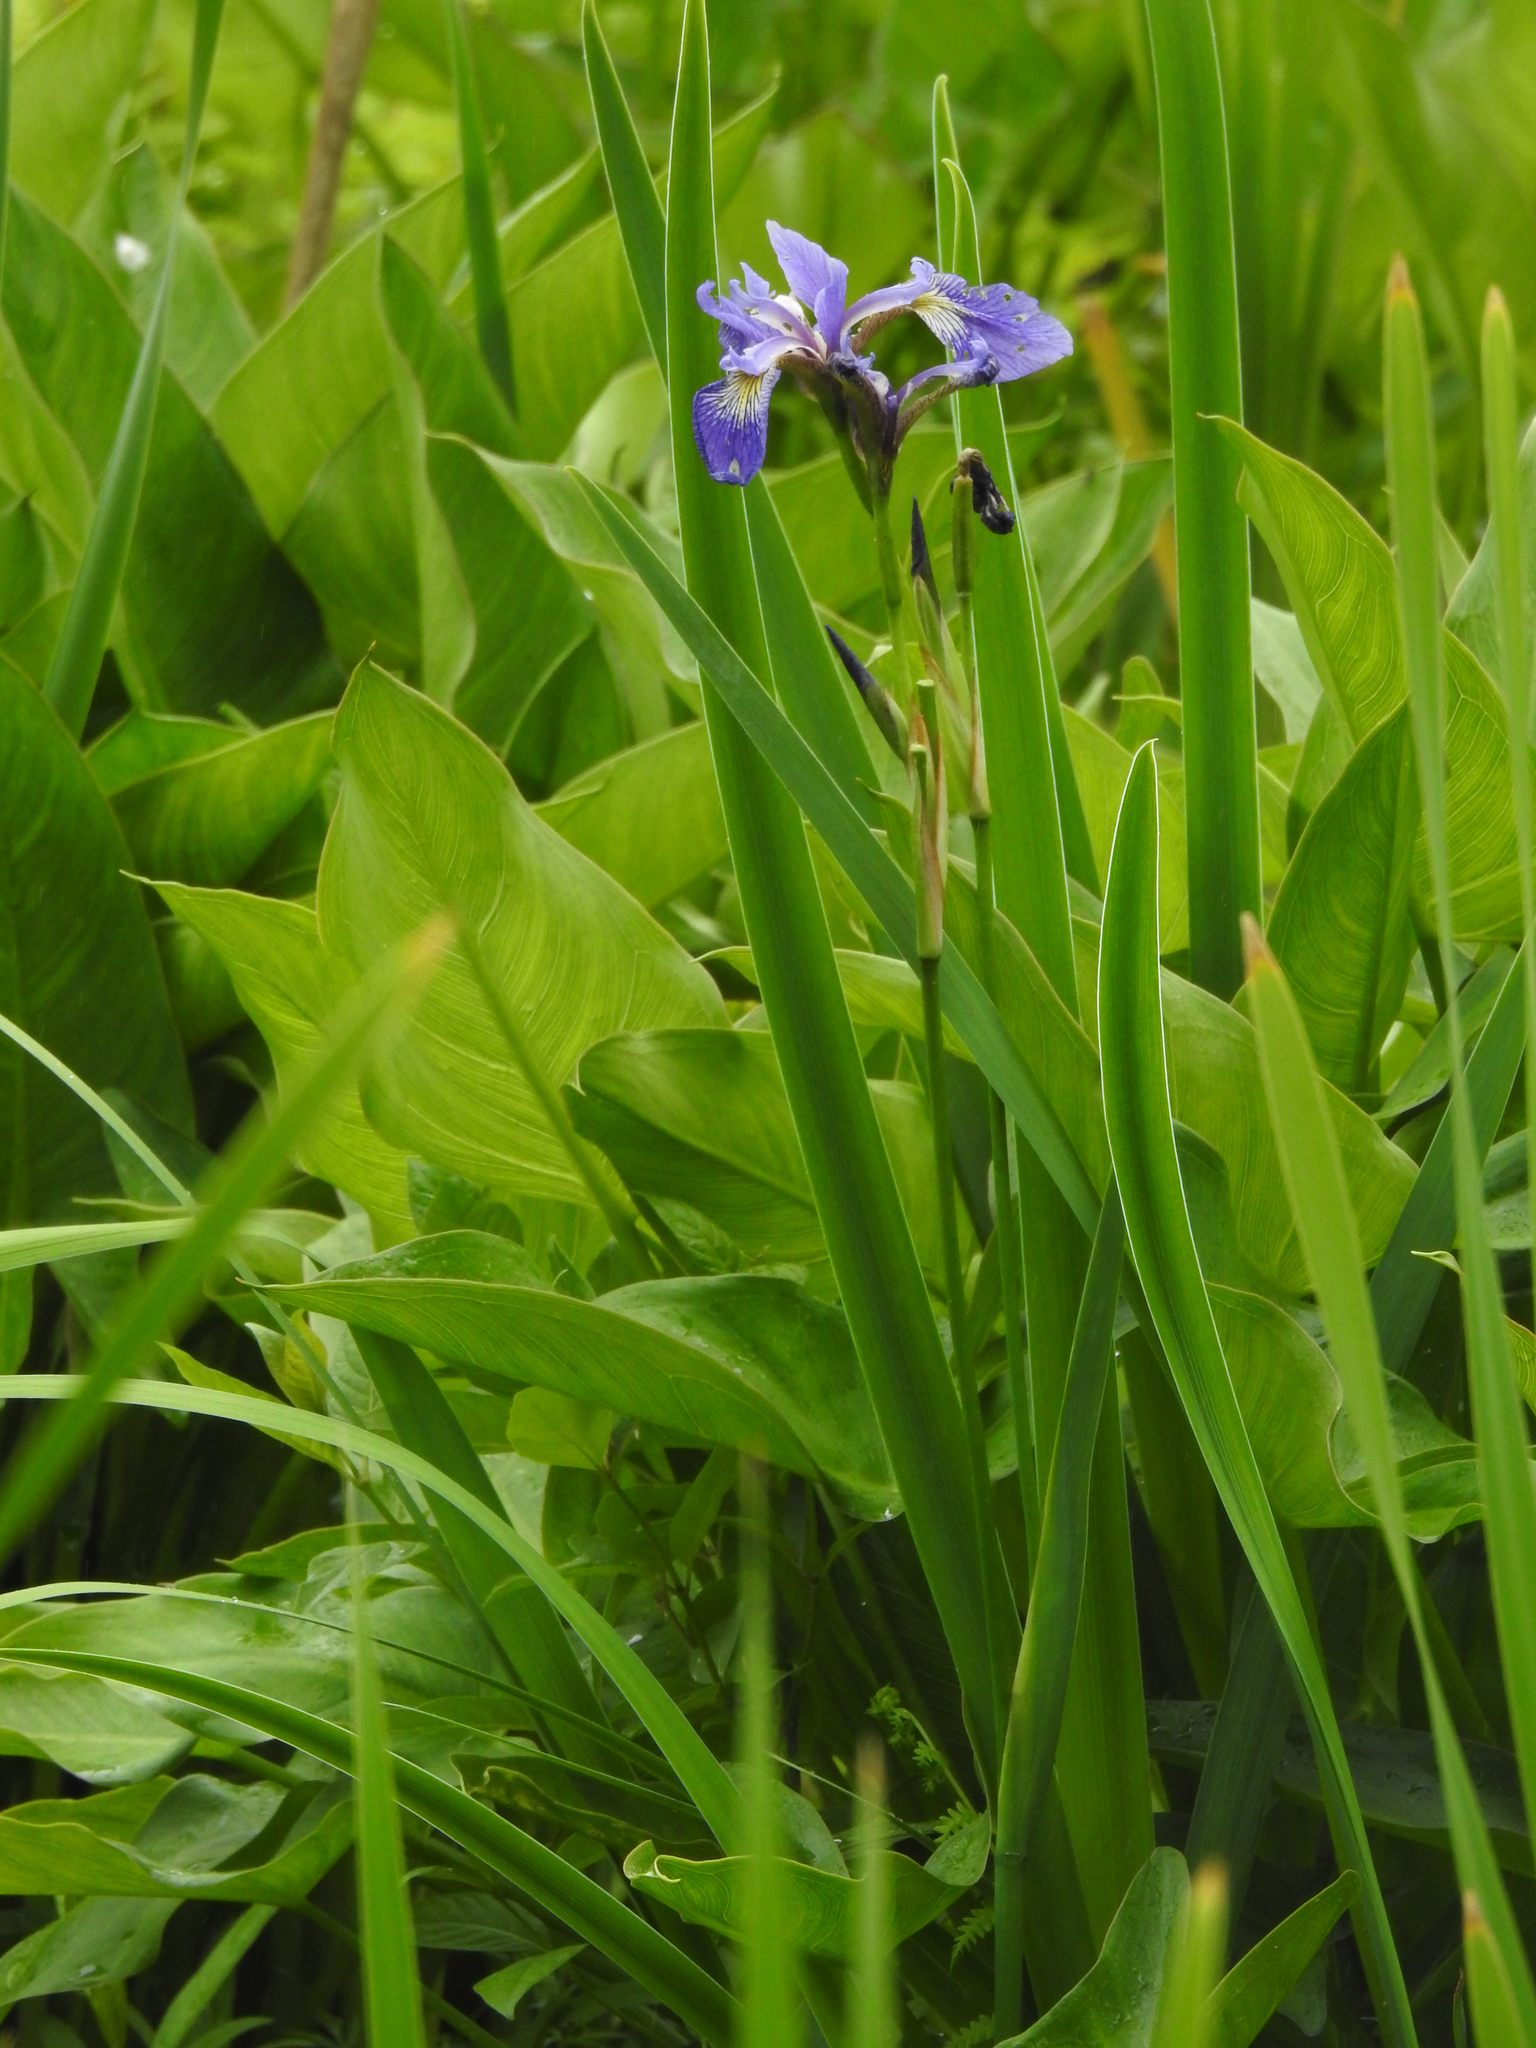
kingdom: Plantae
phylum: Tracheophyta
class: Liliopsida
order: Asparagales
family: Iridaceae
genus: Iris
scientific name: Iris versicolor
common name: Purple iris
